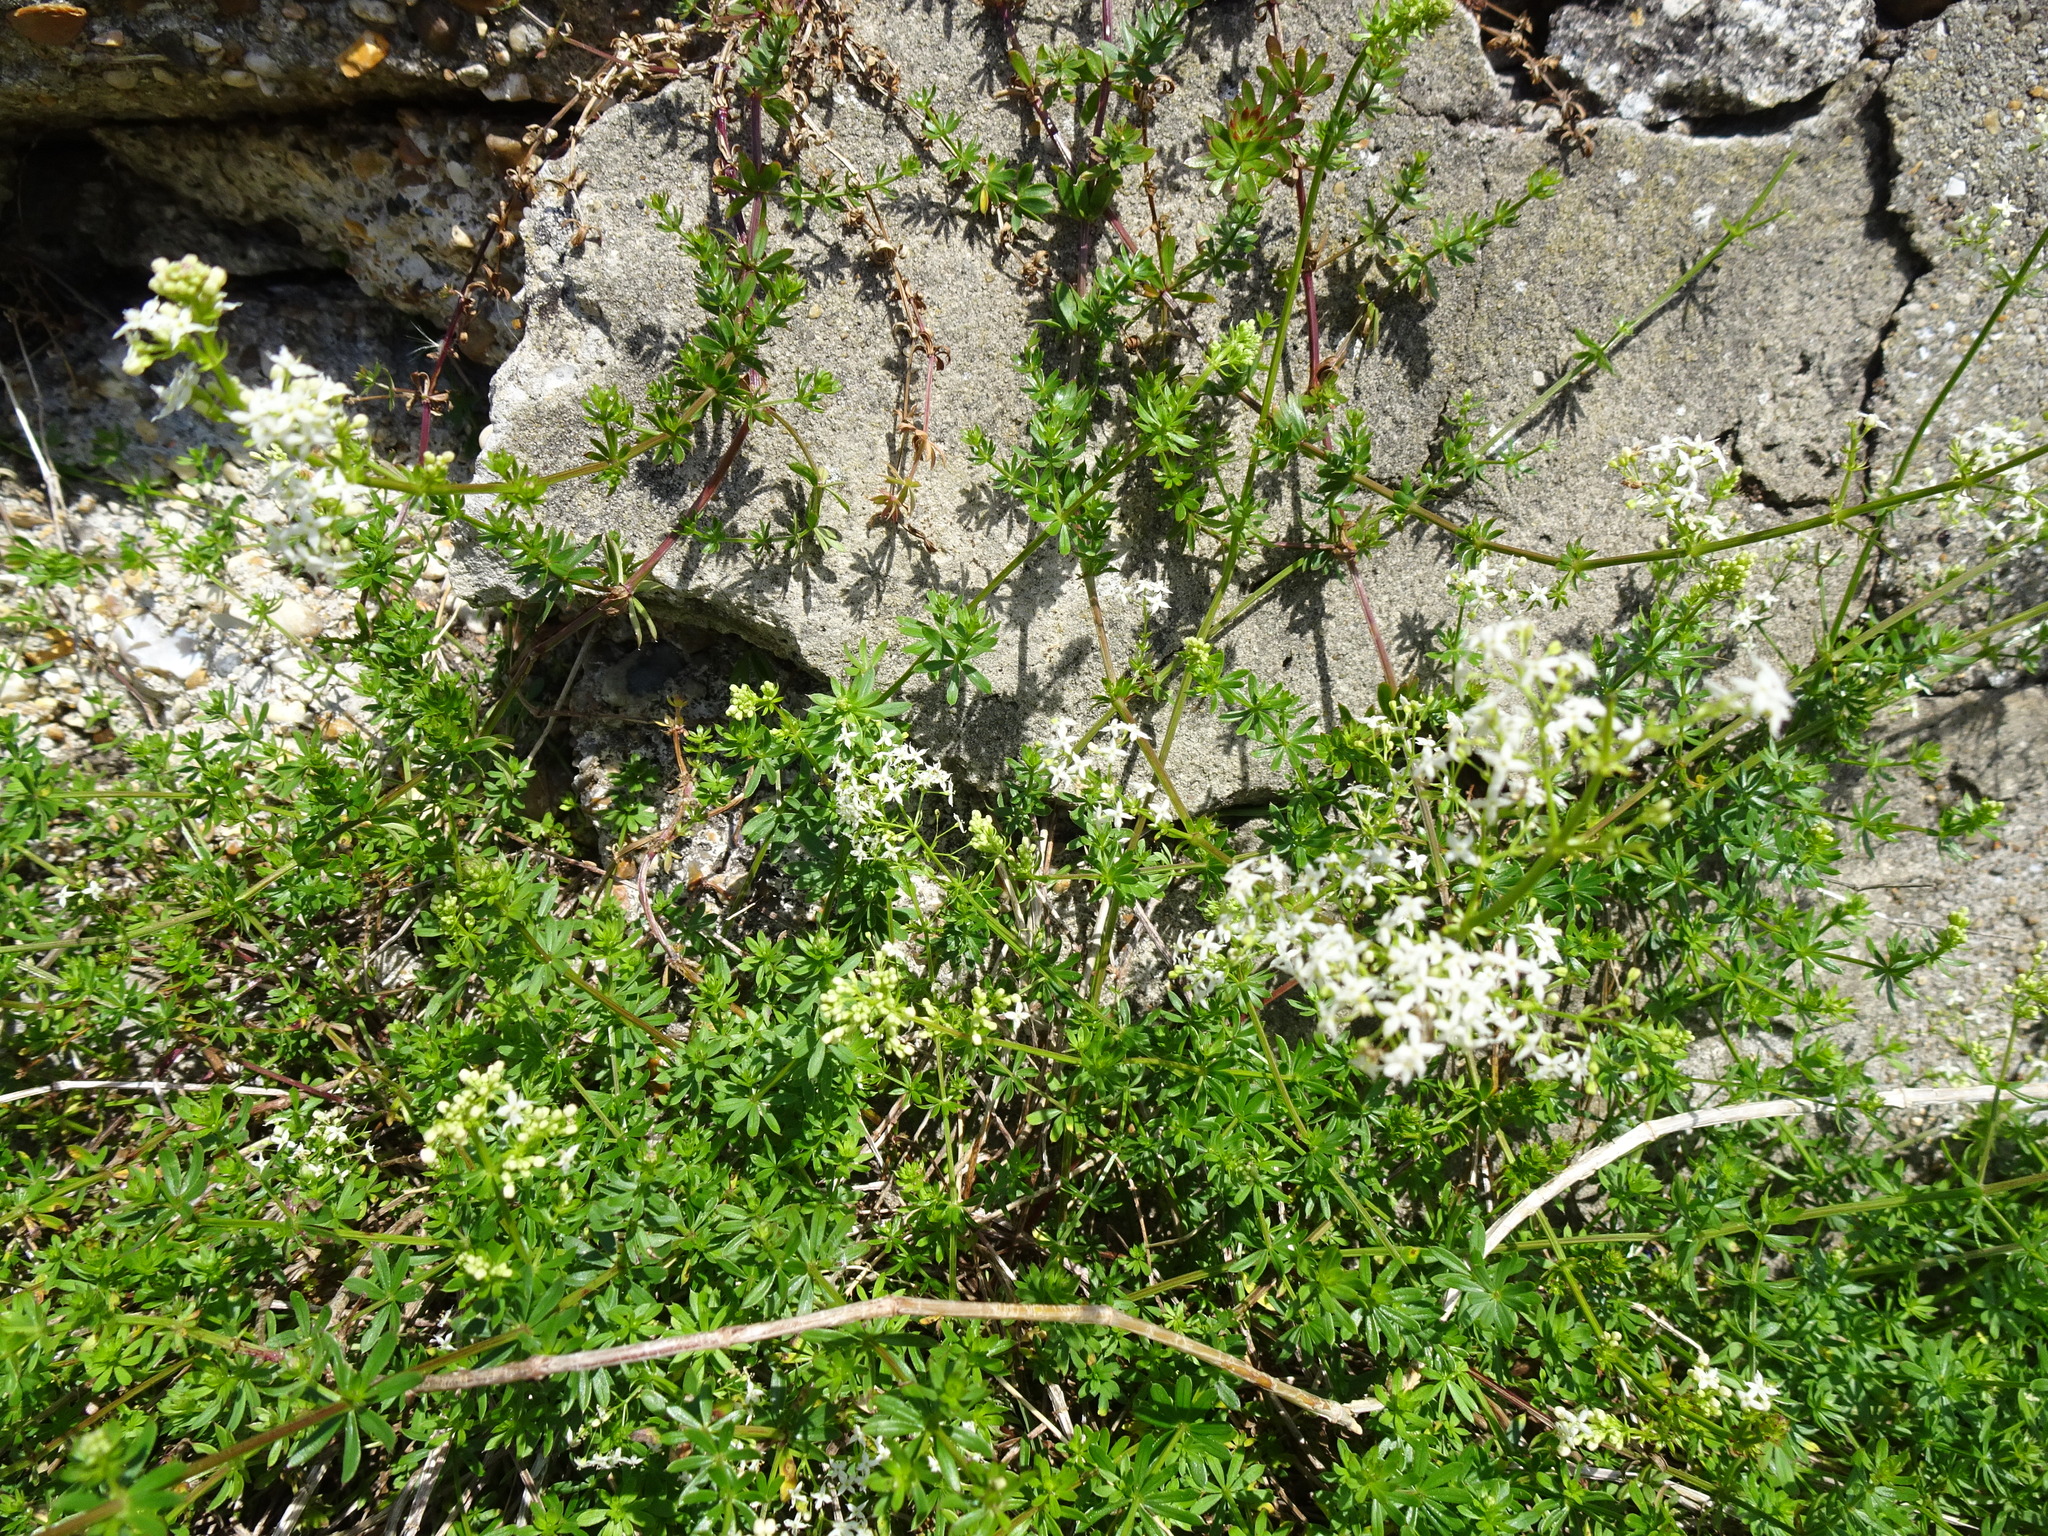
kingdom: Plantae
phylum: Tracheophyta
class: Magnoliopsida
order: Gentianales
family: Rubiaceae
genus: Galium
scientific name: Galium album
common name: White bedstraw
